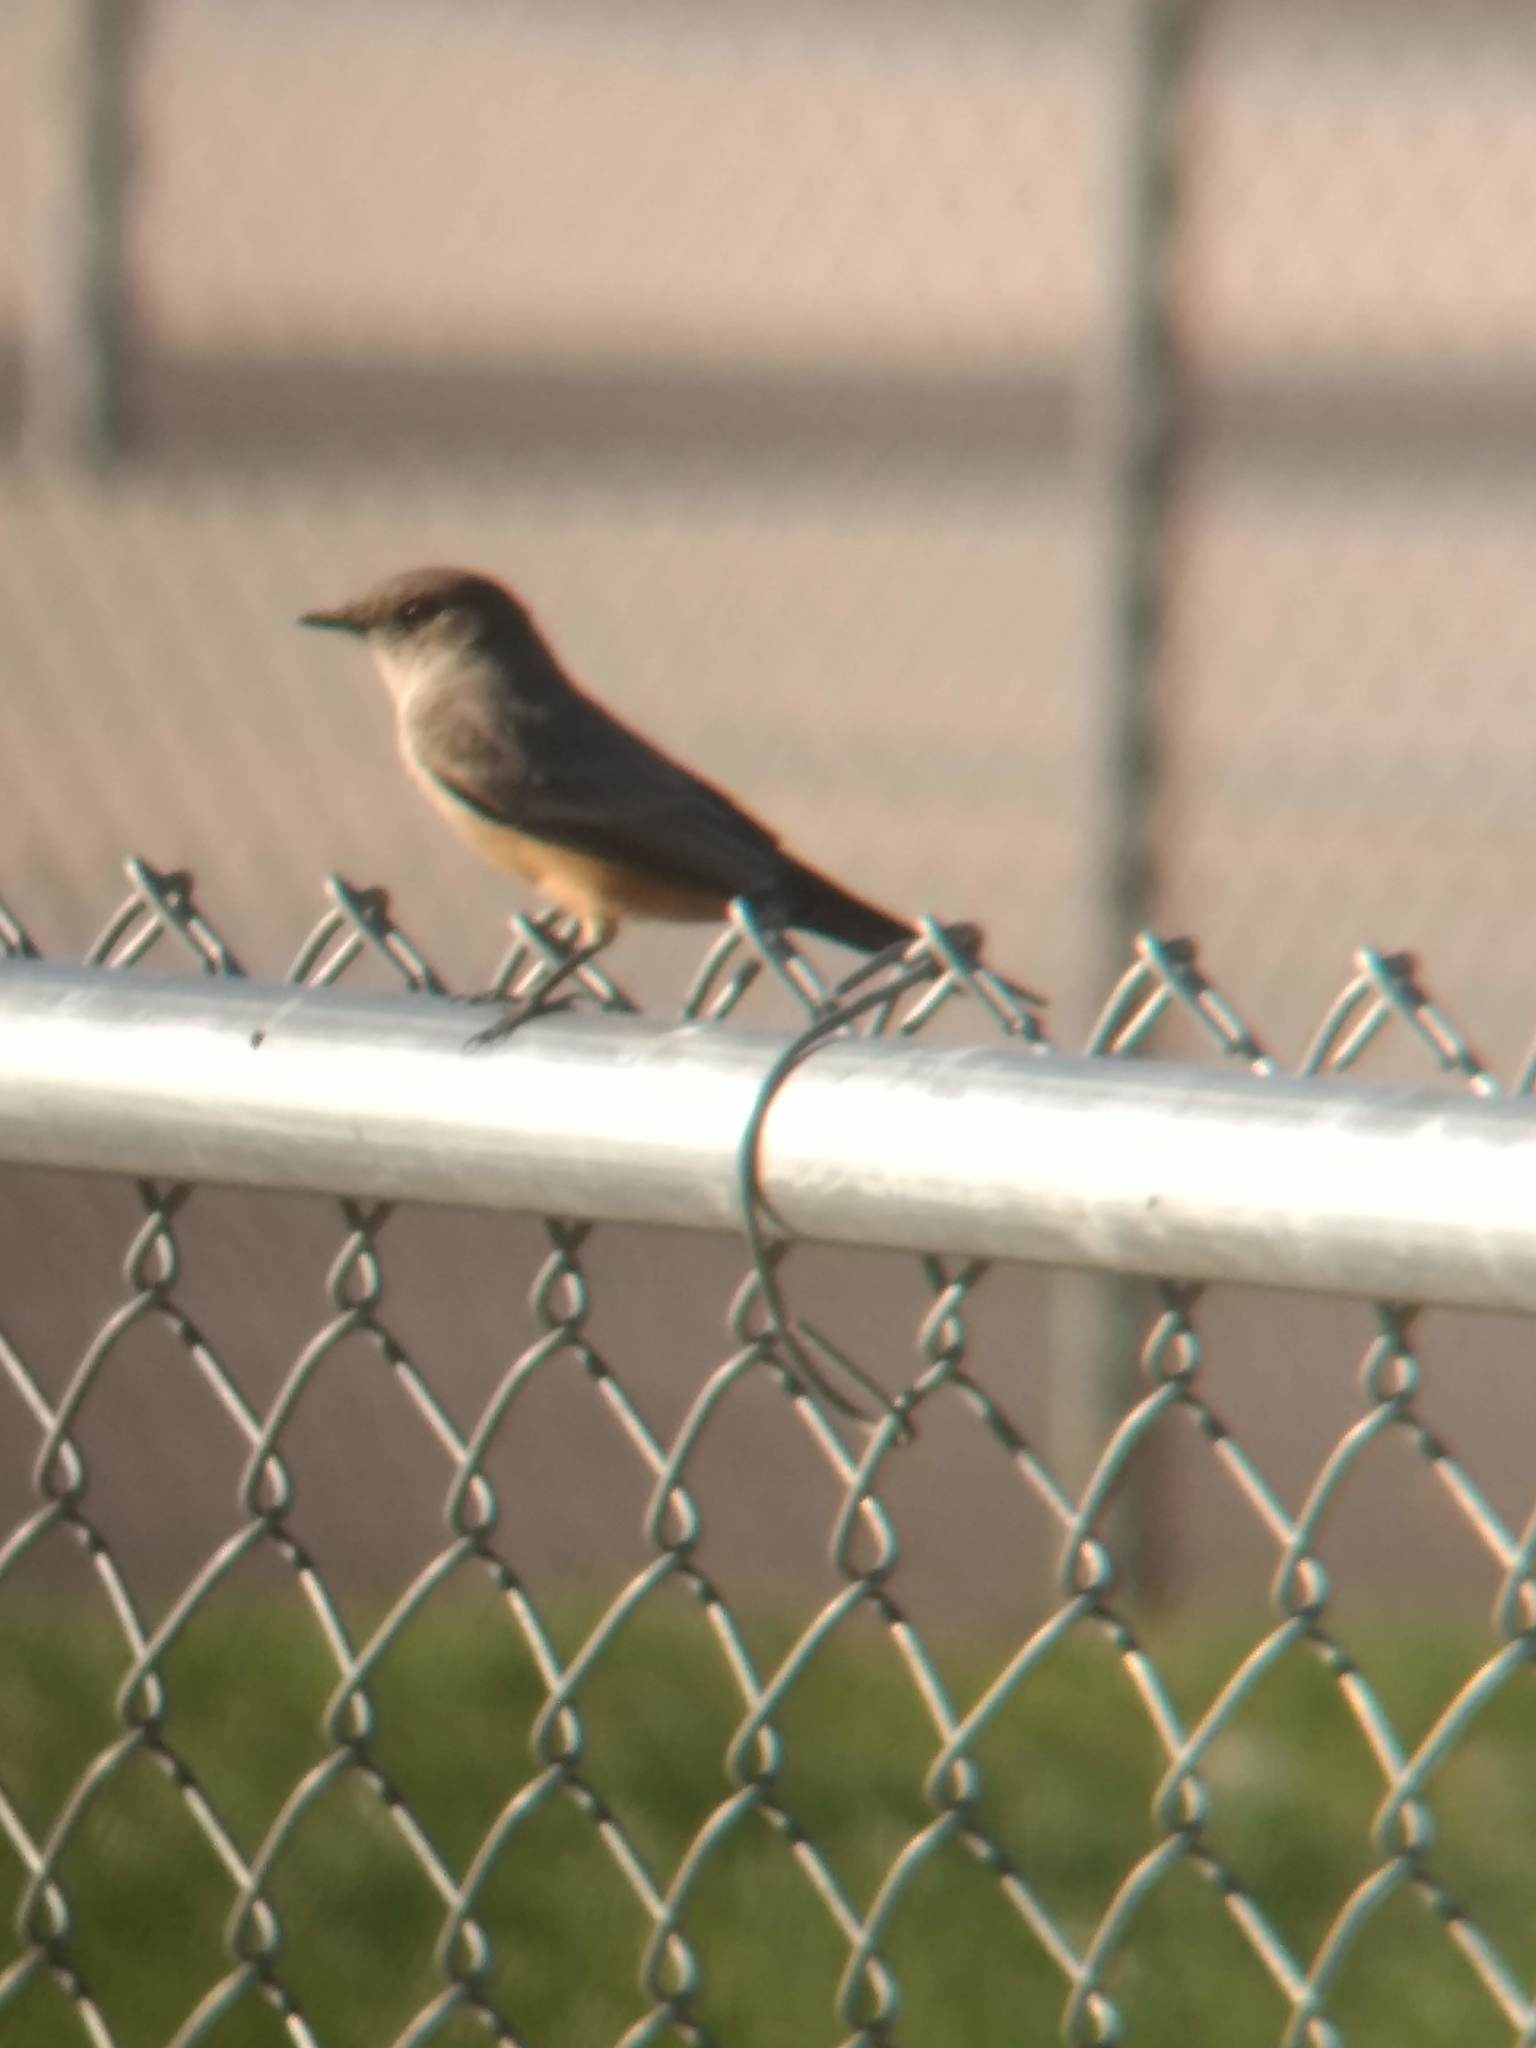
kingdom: Animalia
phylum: Chordata
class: Aves
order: Passeriformes
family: Tyrannidae
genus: Sayornis
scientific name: Sayornis saya
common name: Say's phoebe
